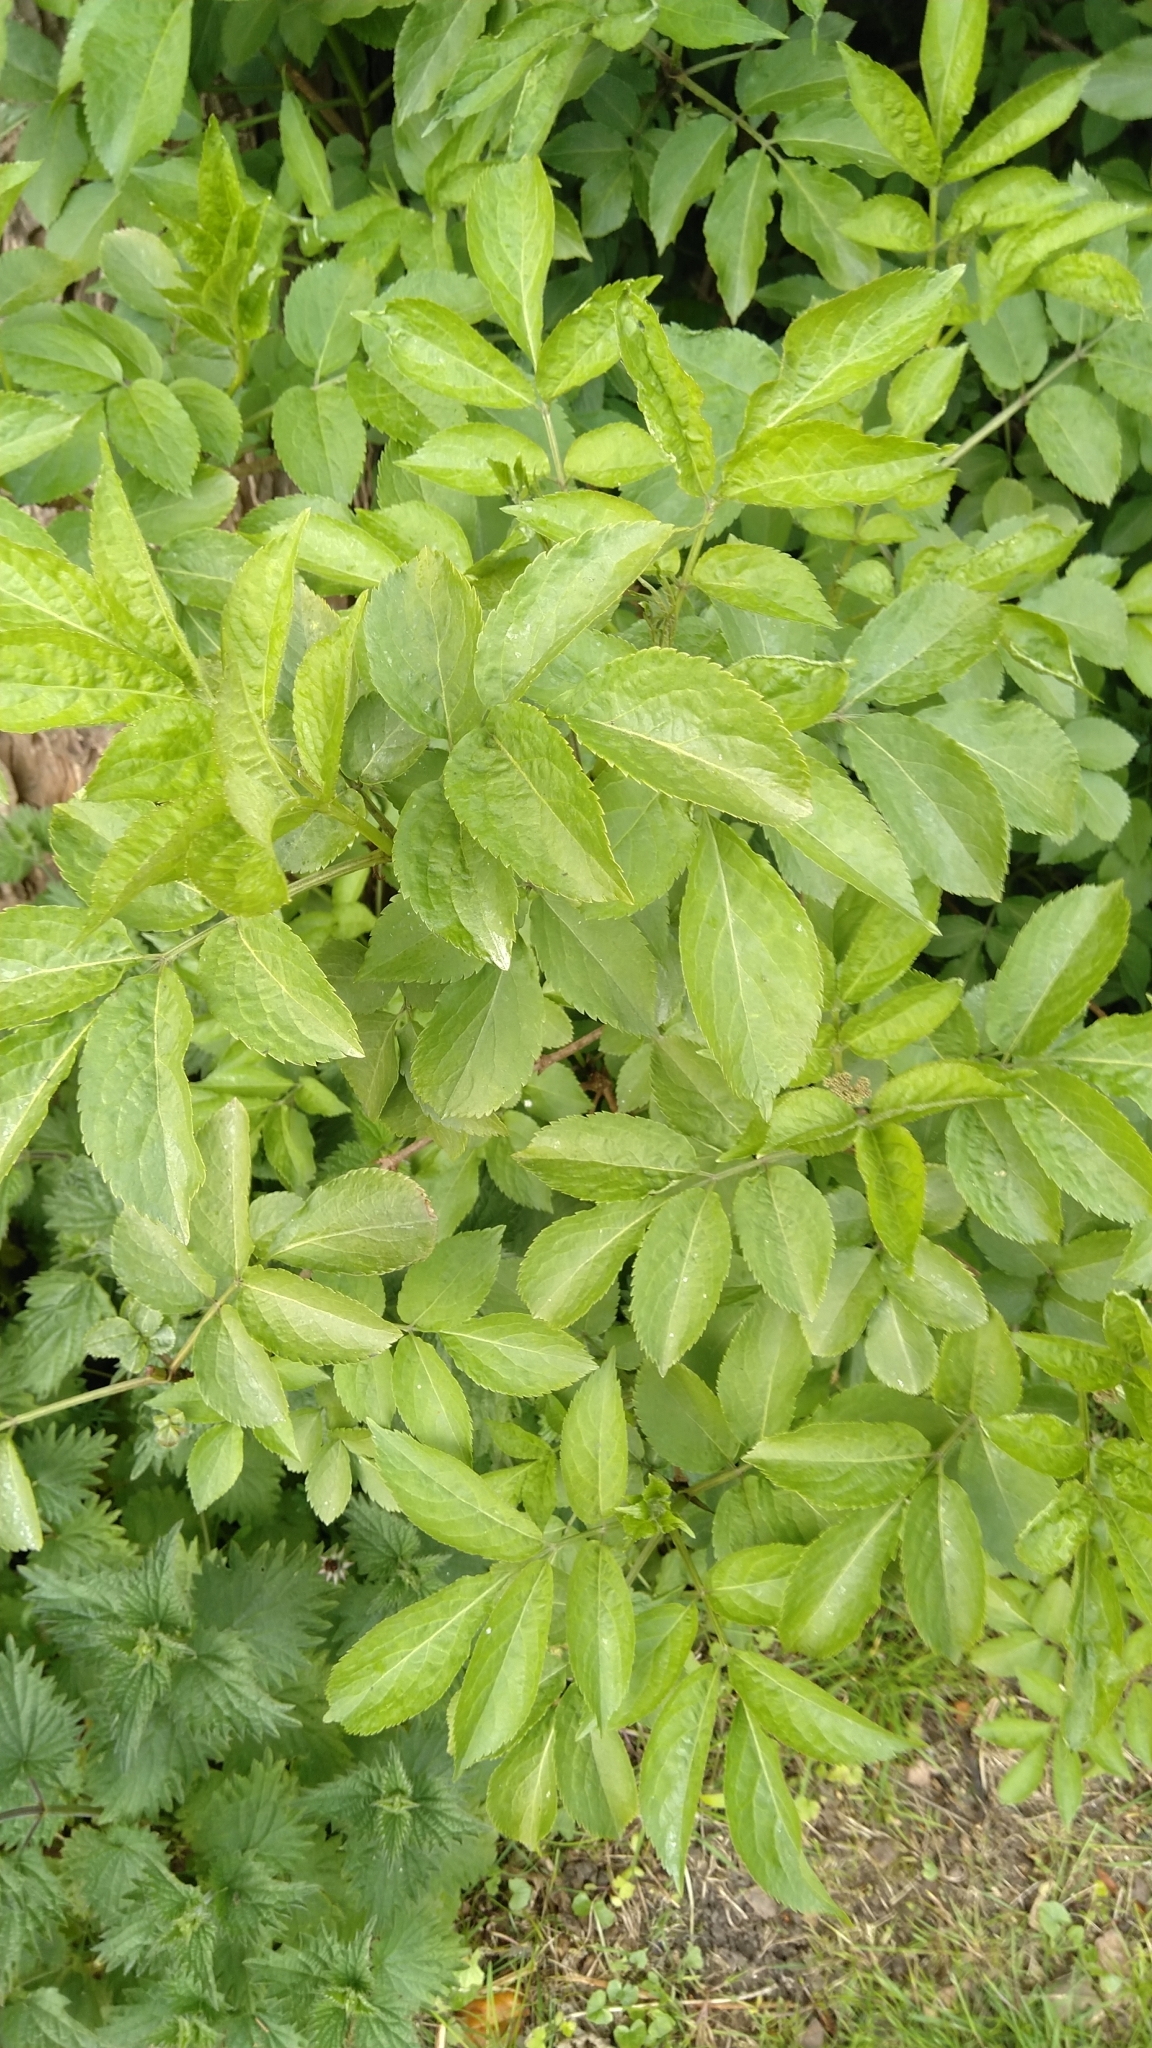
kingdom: Plantae
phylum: Tracheophyta
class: Magnoliopsida
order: Dipsacales
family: Viburnaceae
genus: Sambucus
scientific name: Sambucus nigra
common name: Elder
